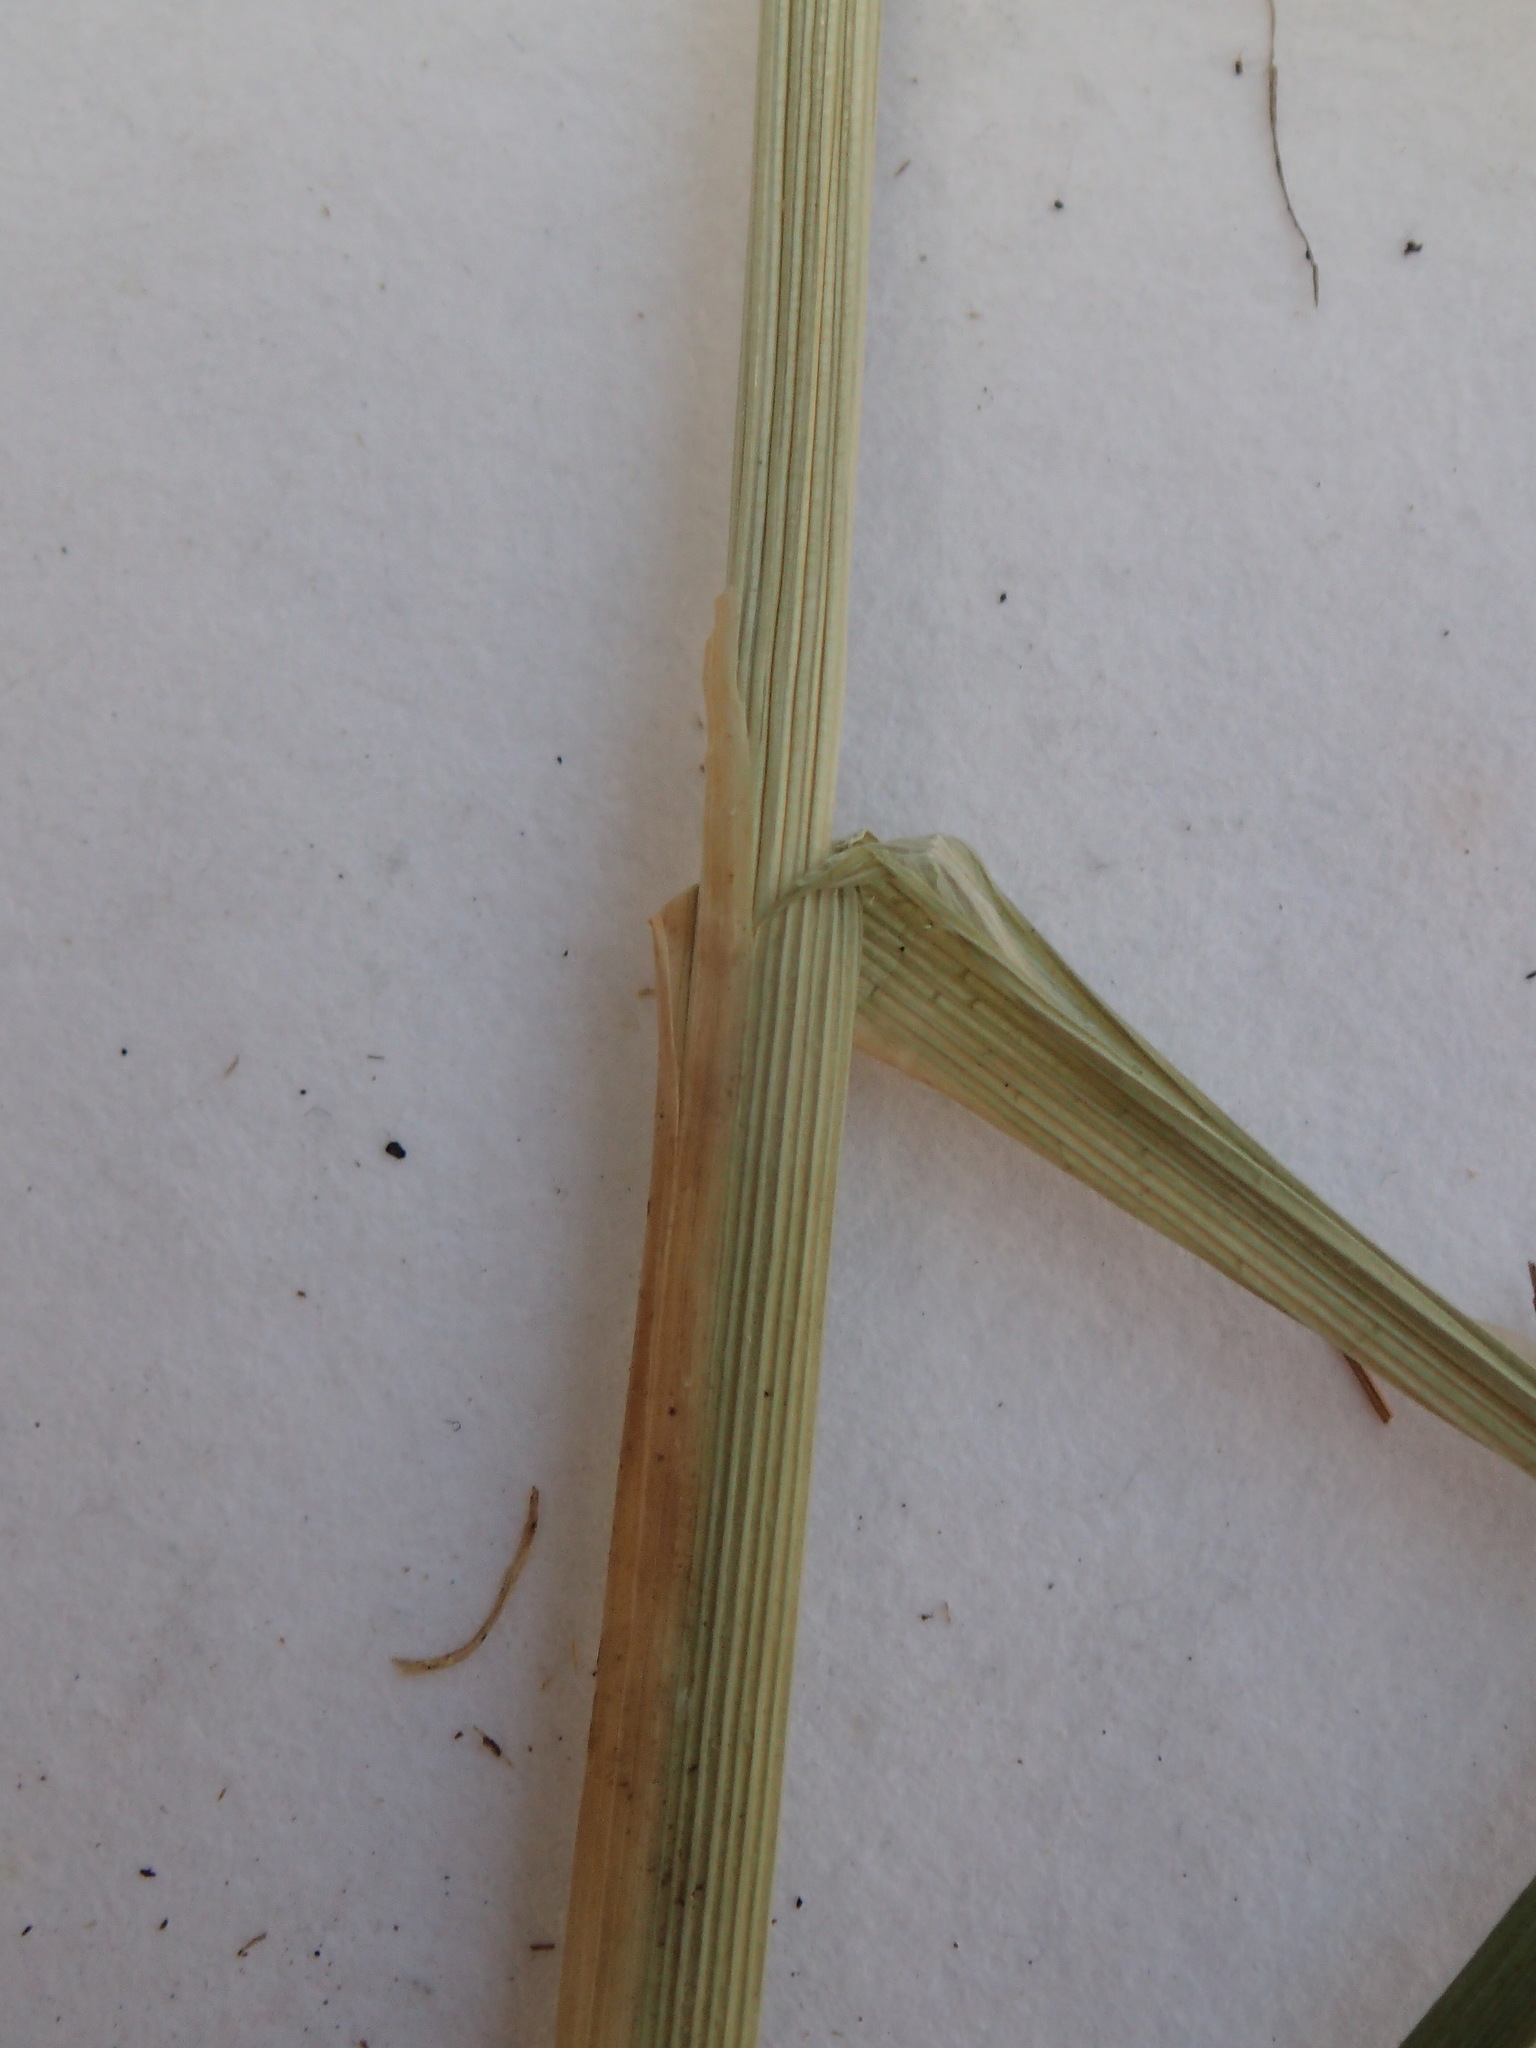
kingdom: Plantae
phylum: Tracheophyta
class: Liliopsida
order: Poales
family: Cyperaceae
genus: Carex
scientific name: Carex laeviconica
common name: Plains slough sedge
